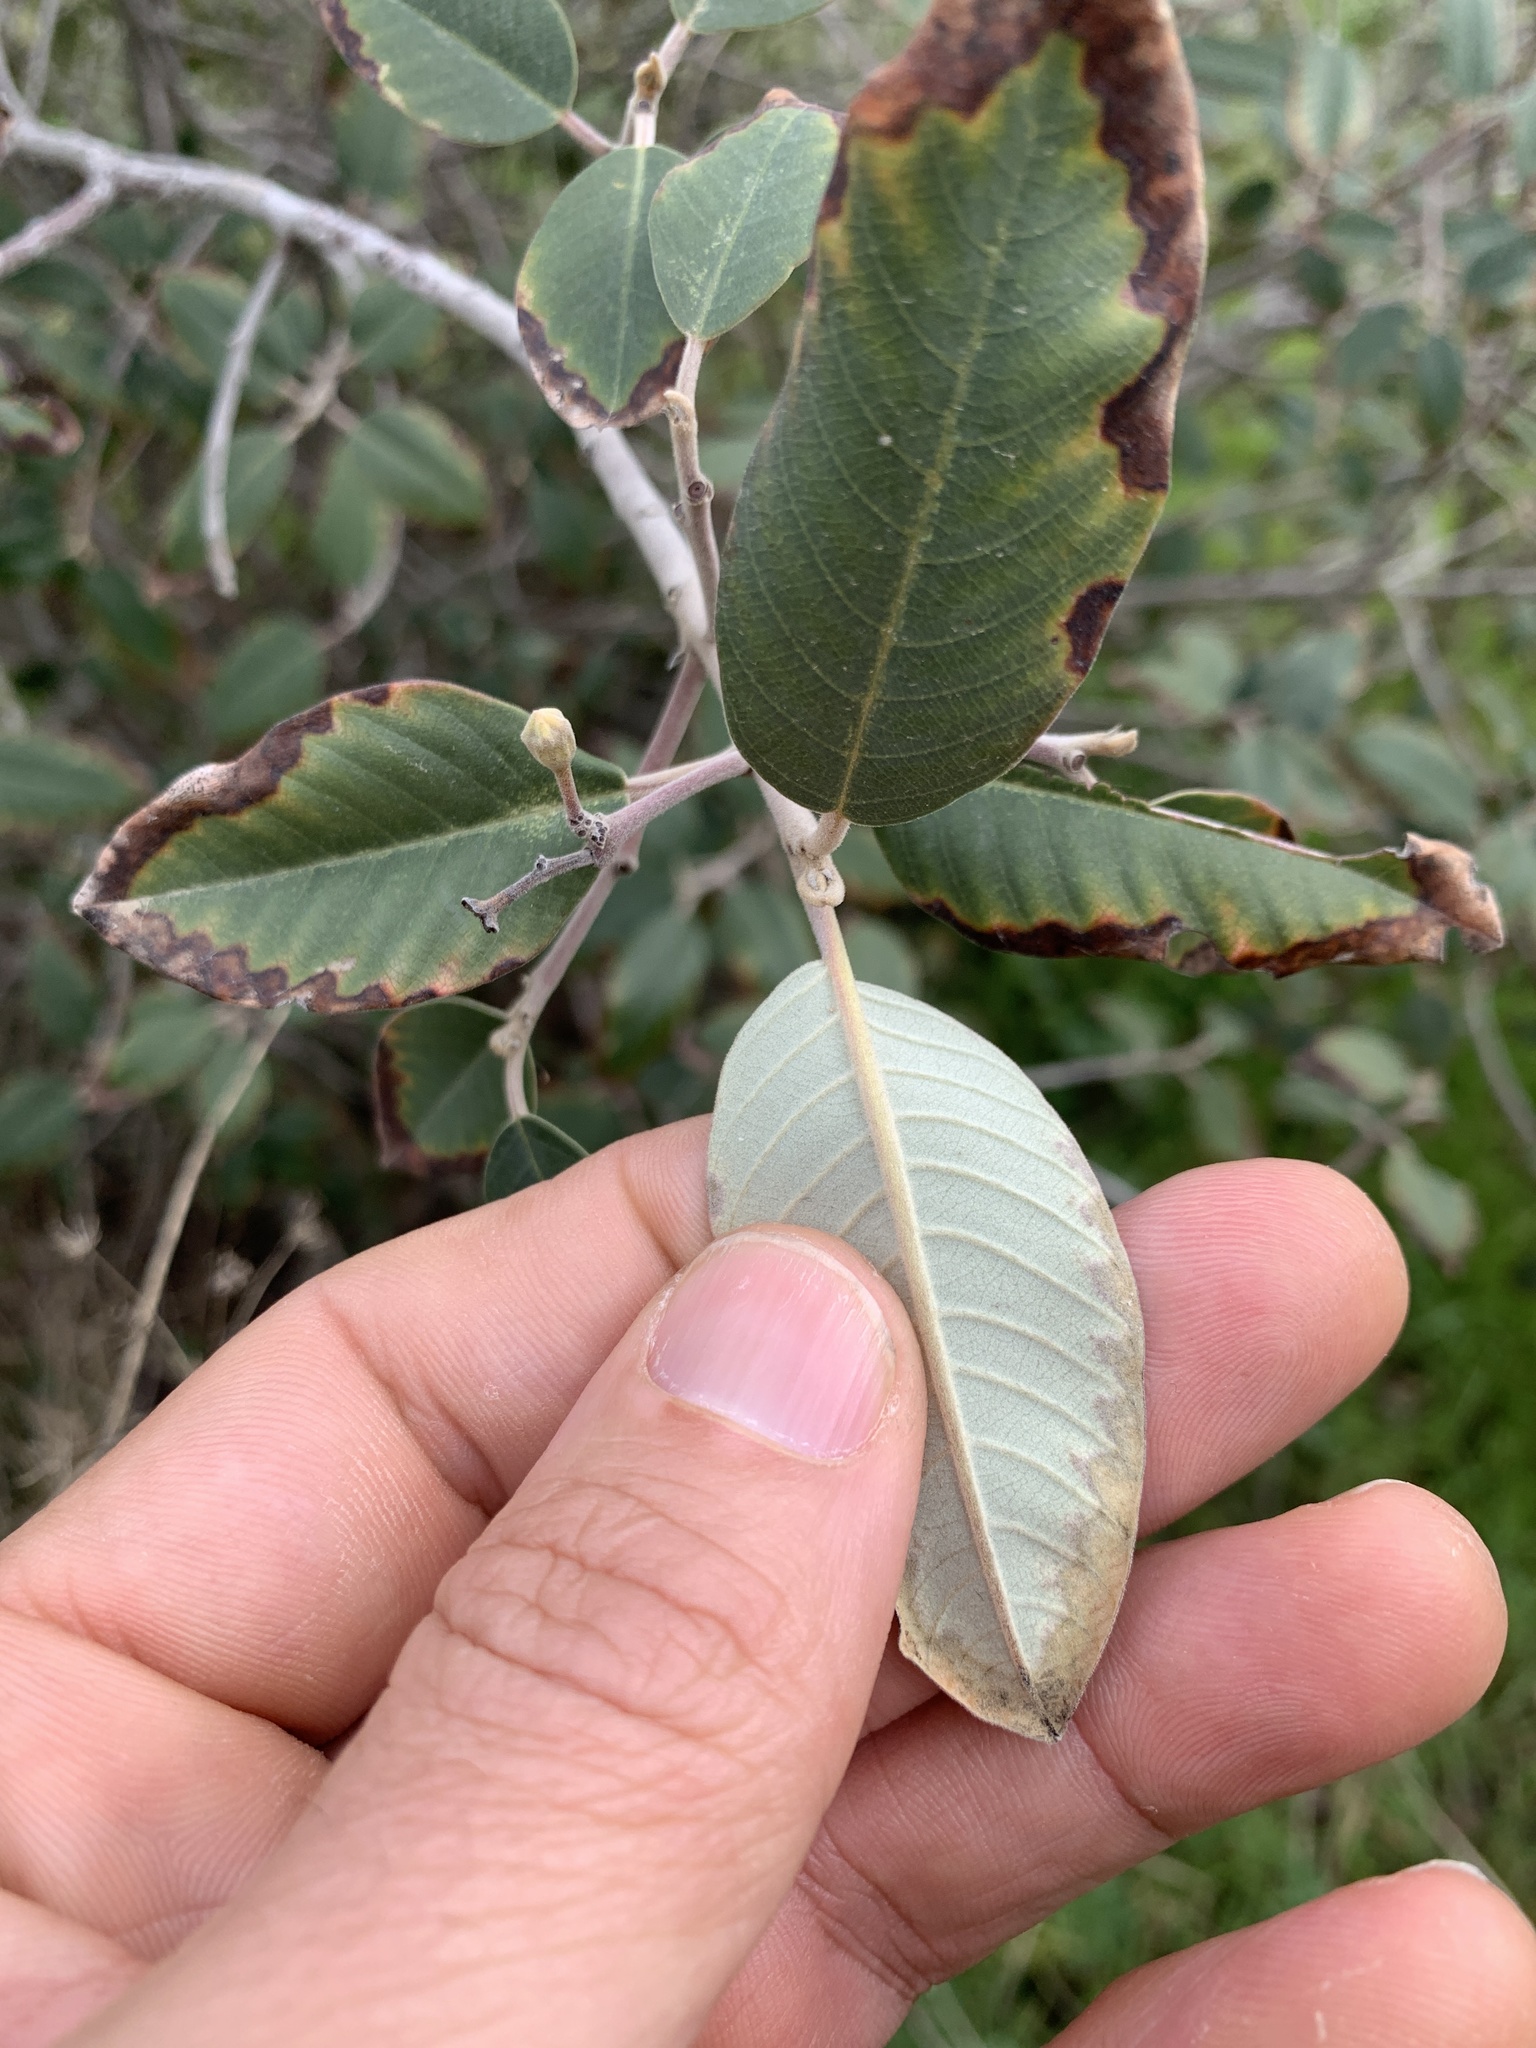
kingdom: Plantae
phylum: Tracheophyta
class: Magnoliopsida
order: Rosales
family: Rhamnaceae
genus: Frangula
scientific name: Frangula californica
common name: California buckthorn
